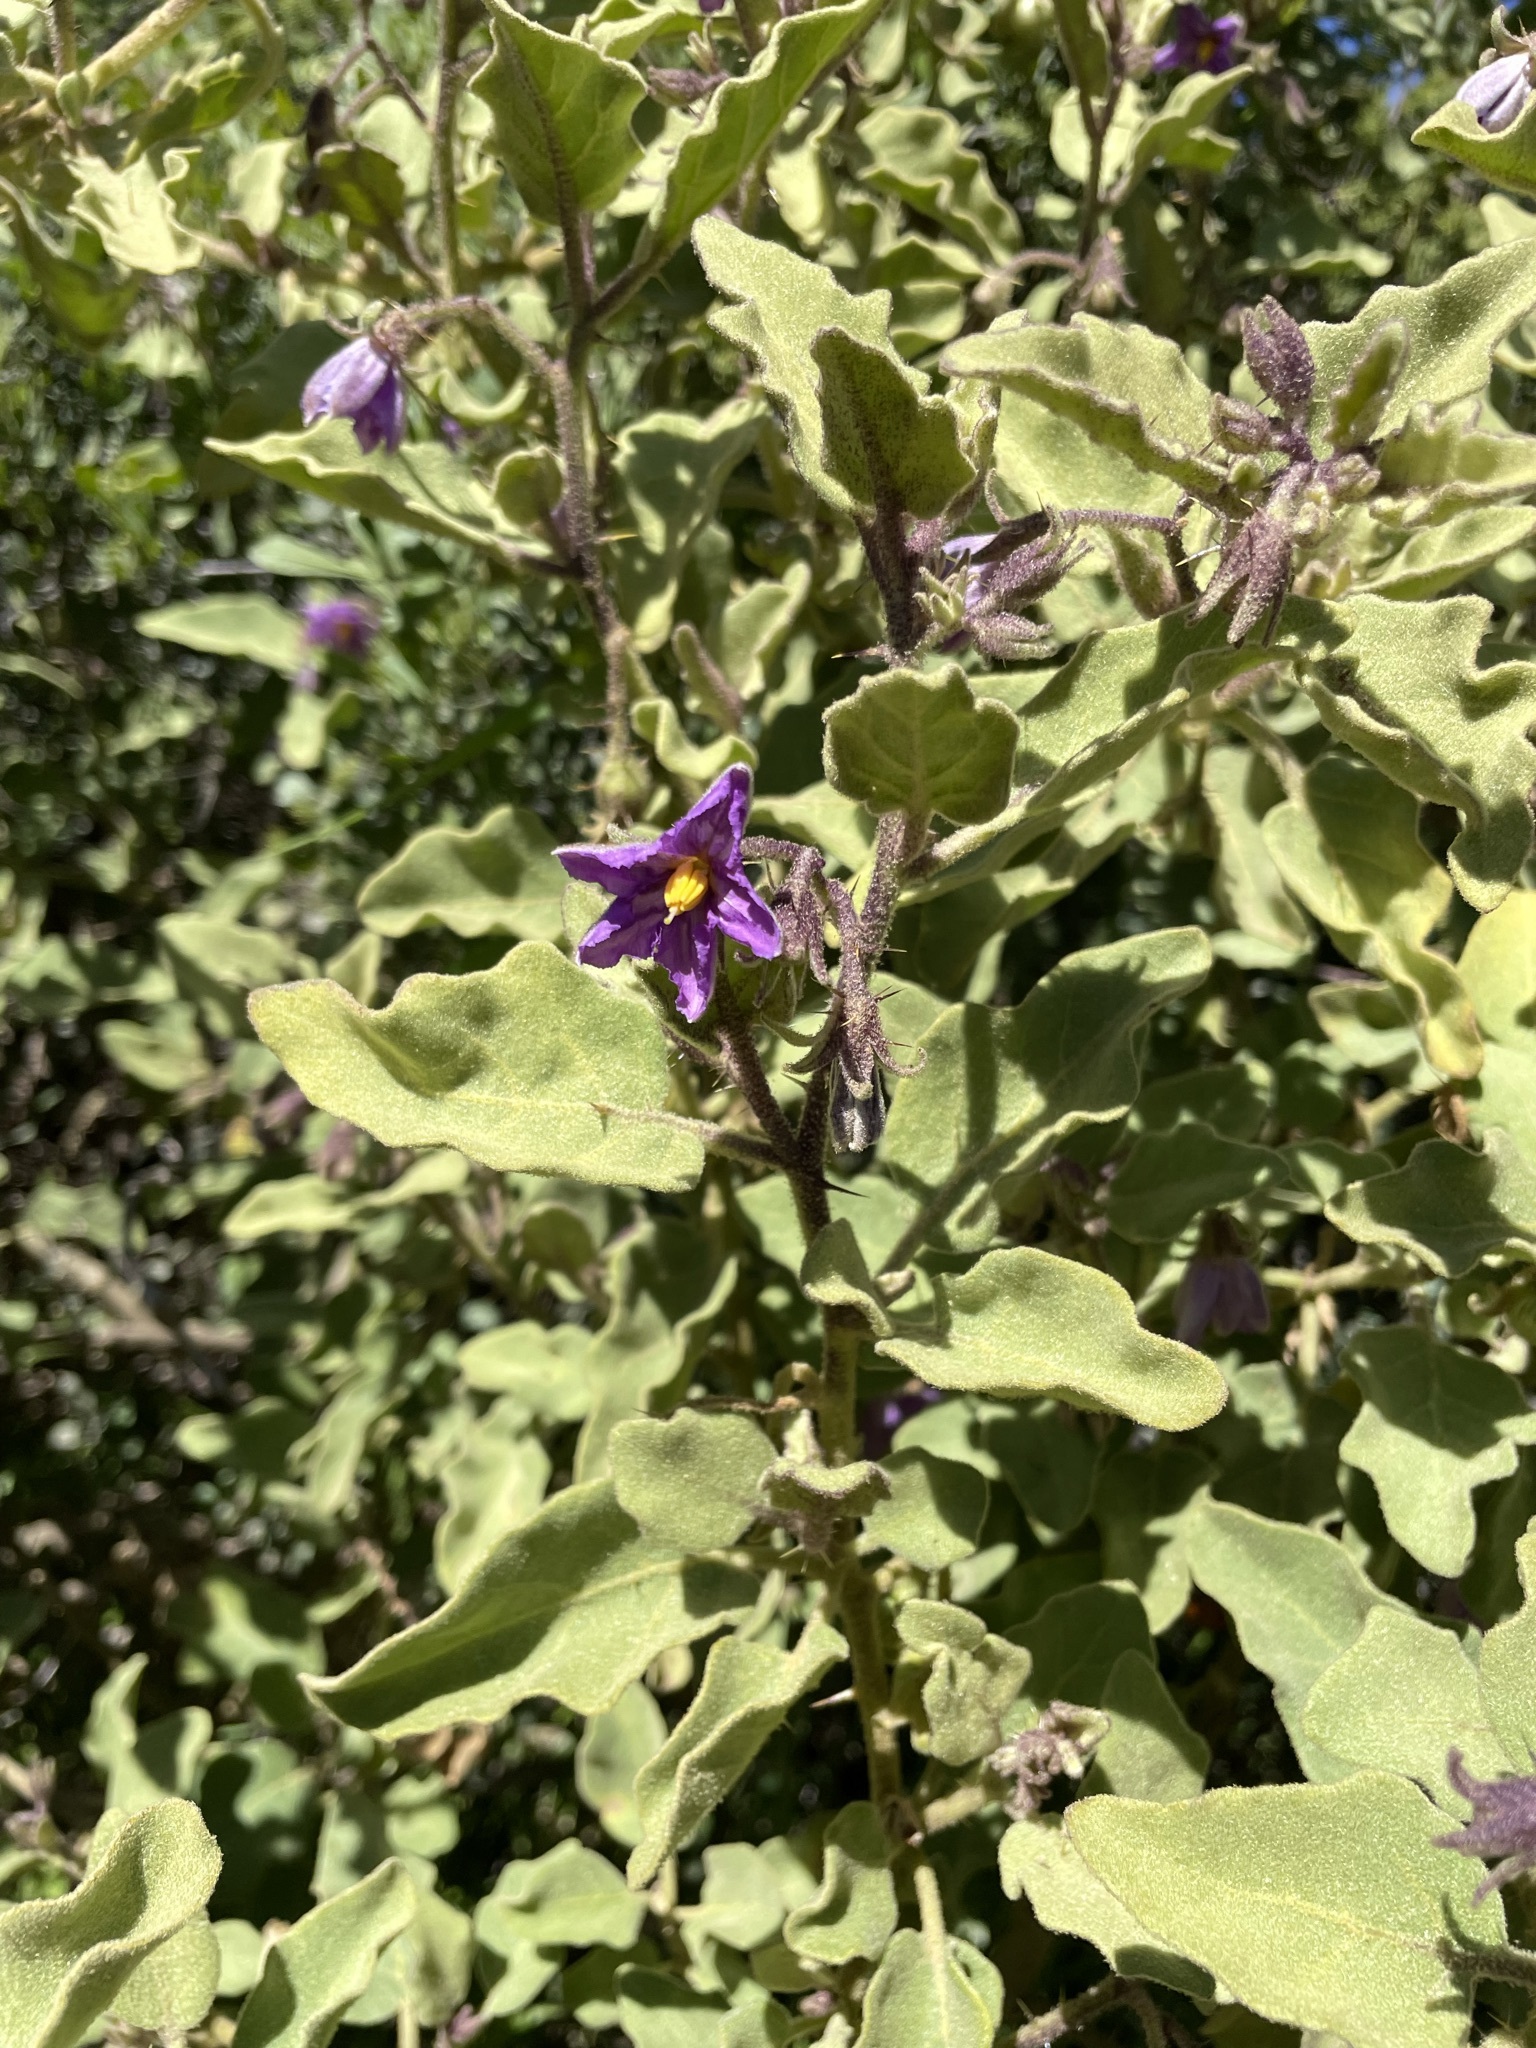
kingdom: Plantae
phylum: Tracheophyta
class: Magnoliopsida
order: Solanales
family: Solanaceae
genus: Solanum
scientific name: Solanum tomentosum
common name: Wild aubergine
